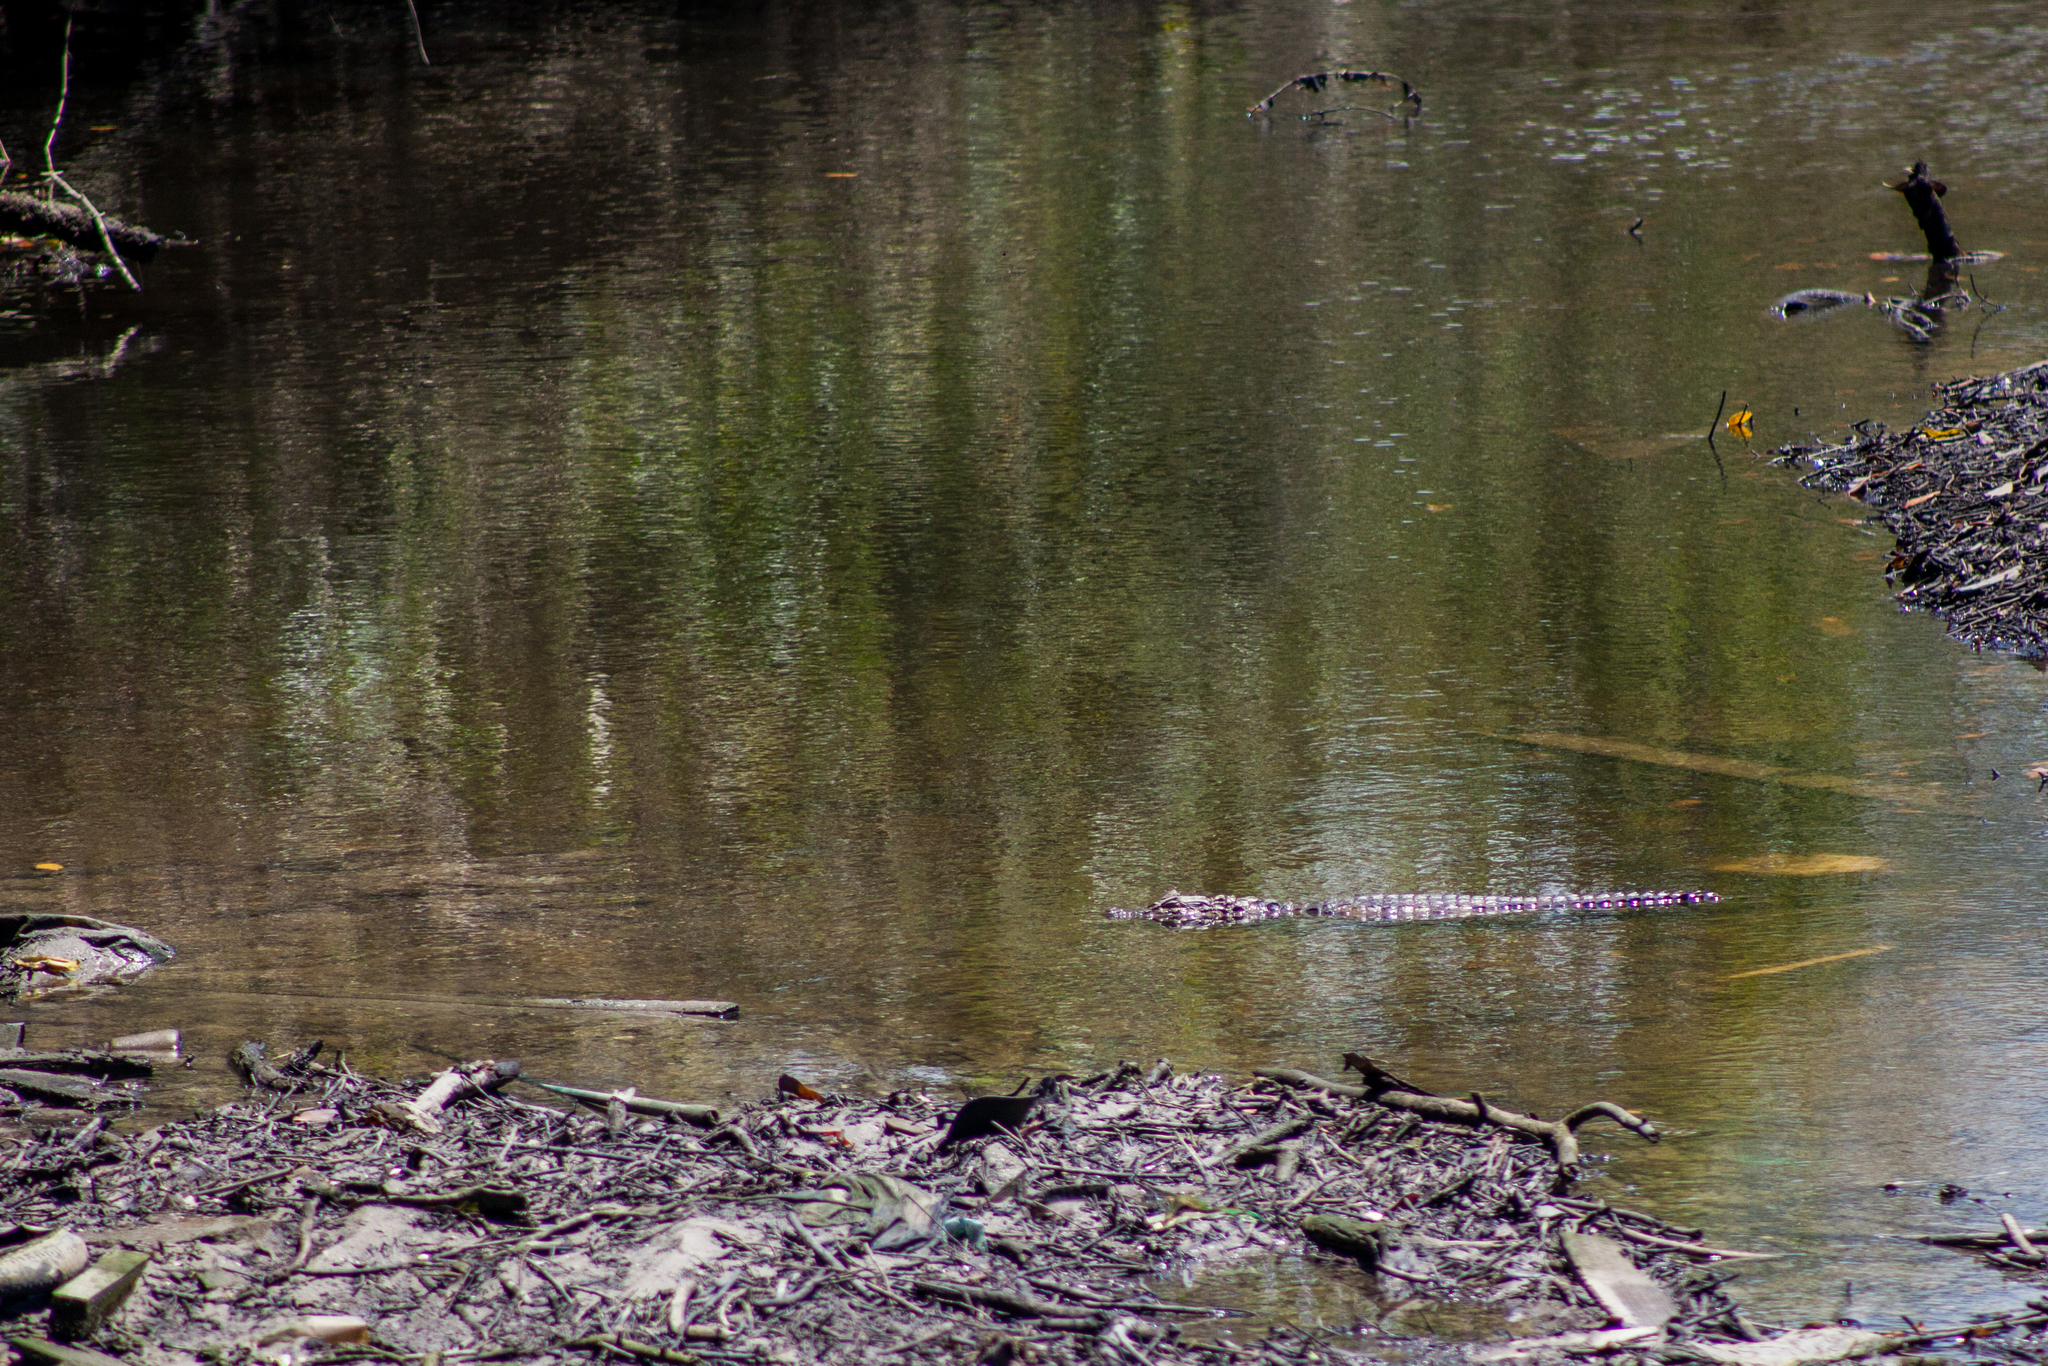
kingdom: Animalia
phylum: Chordata
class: Crocodylia
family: Alligatoridae
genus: Caiman
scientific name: Caiman latirostris
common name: Broad-snouted caiman
